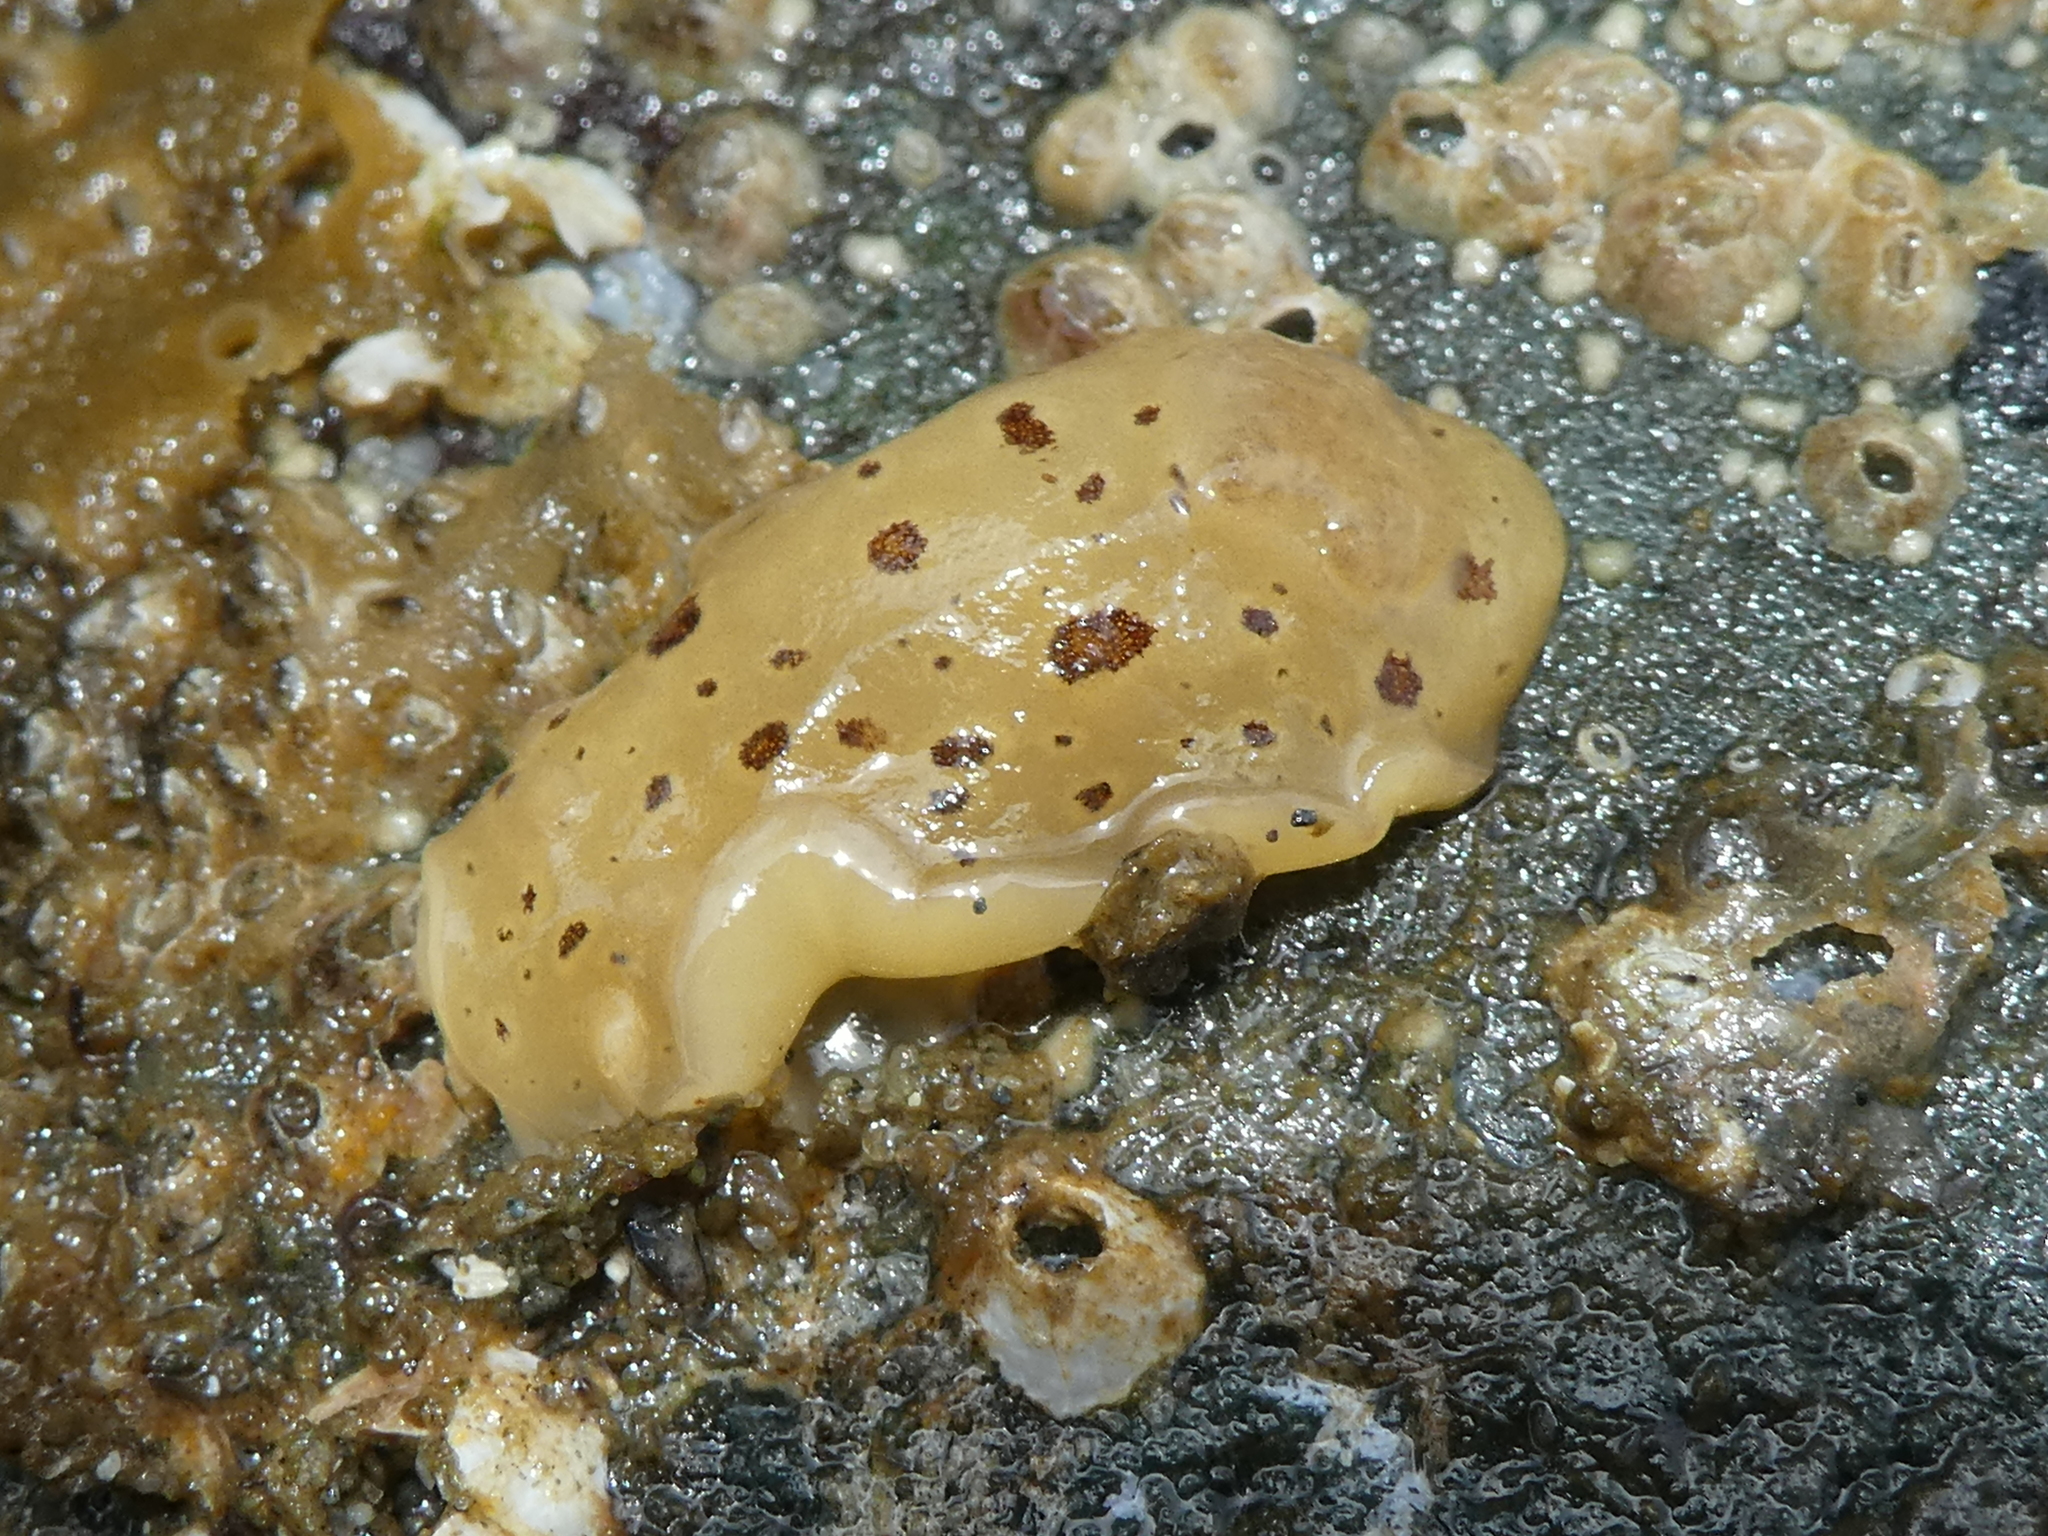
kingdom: Animalia
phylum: Mollusca
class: Gastropoda
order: Nudibranchia
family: Discodorididae
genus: Diaulula
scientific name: Diaulula odonoghuei
